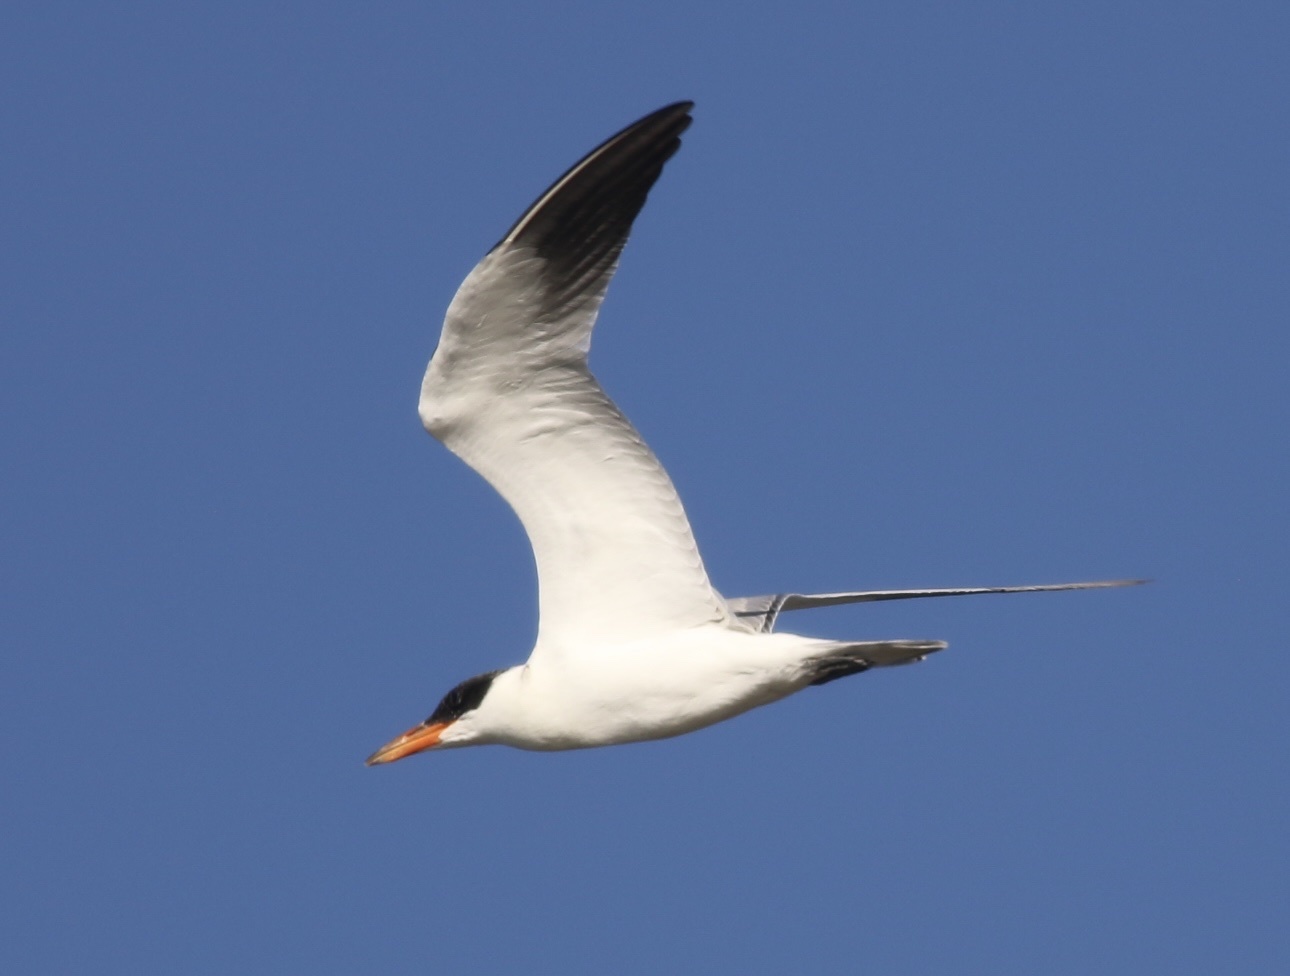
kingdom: Animalia
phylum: Chordata
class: Aves
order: Charadriiformes
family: Laridae
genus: Hydroprogne
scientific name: Hydroprogne caspia
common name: Caspian tern
